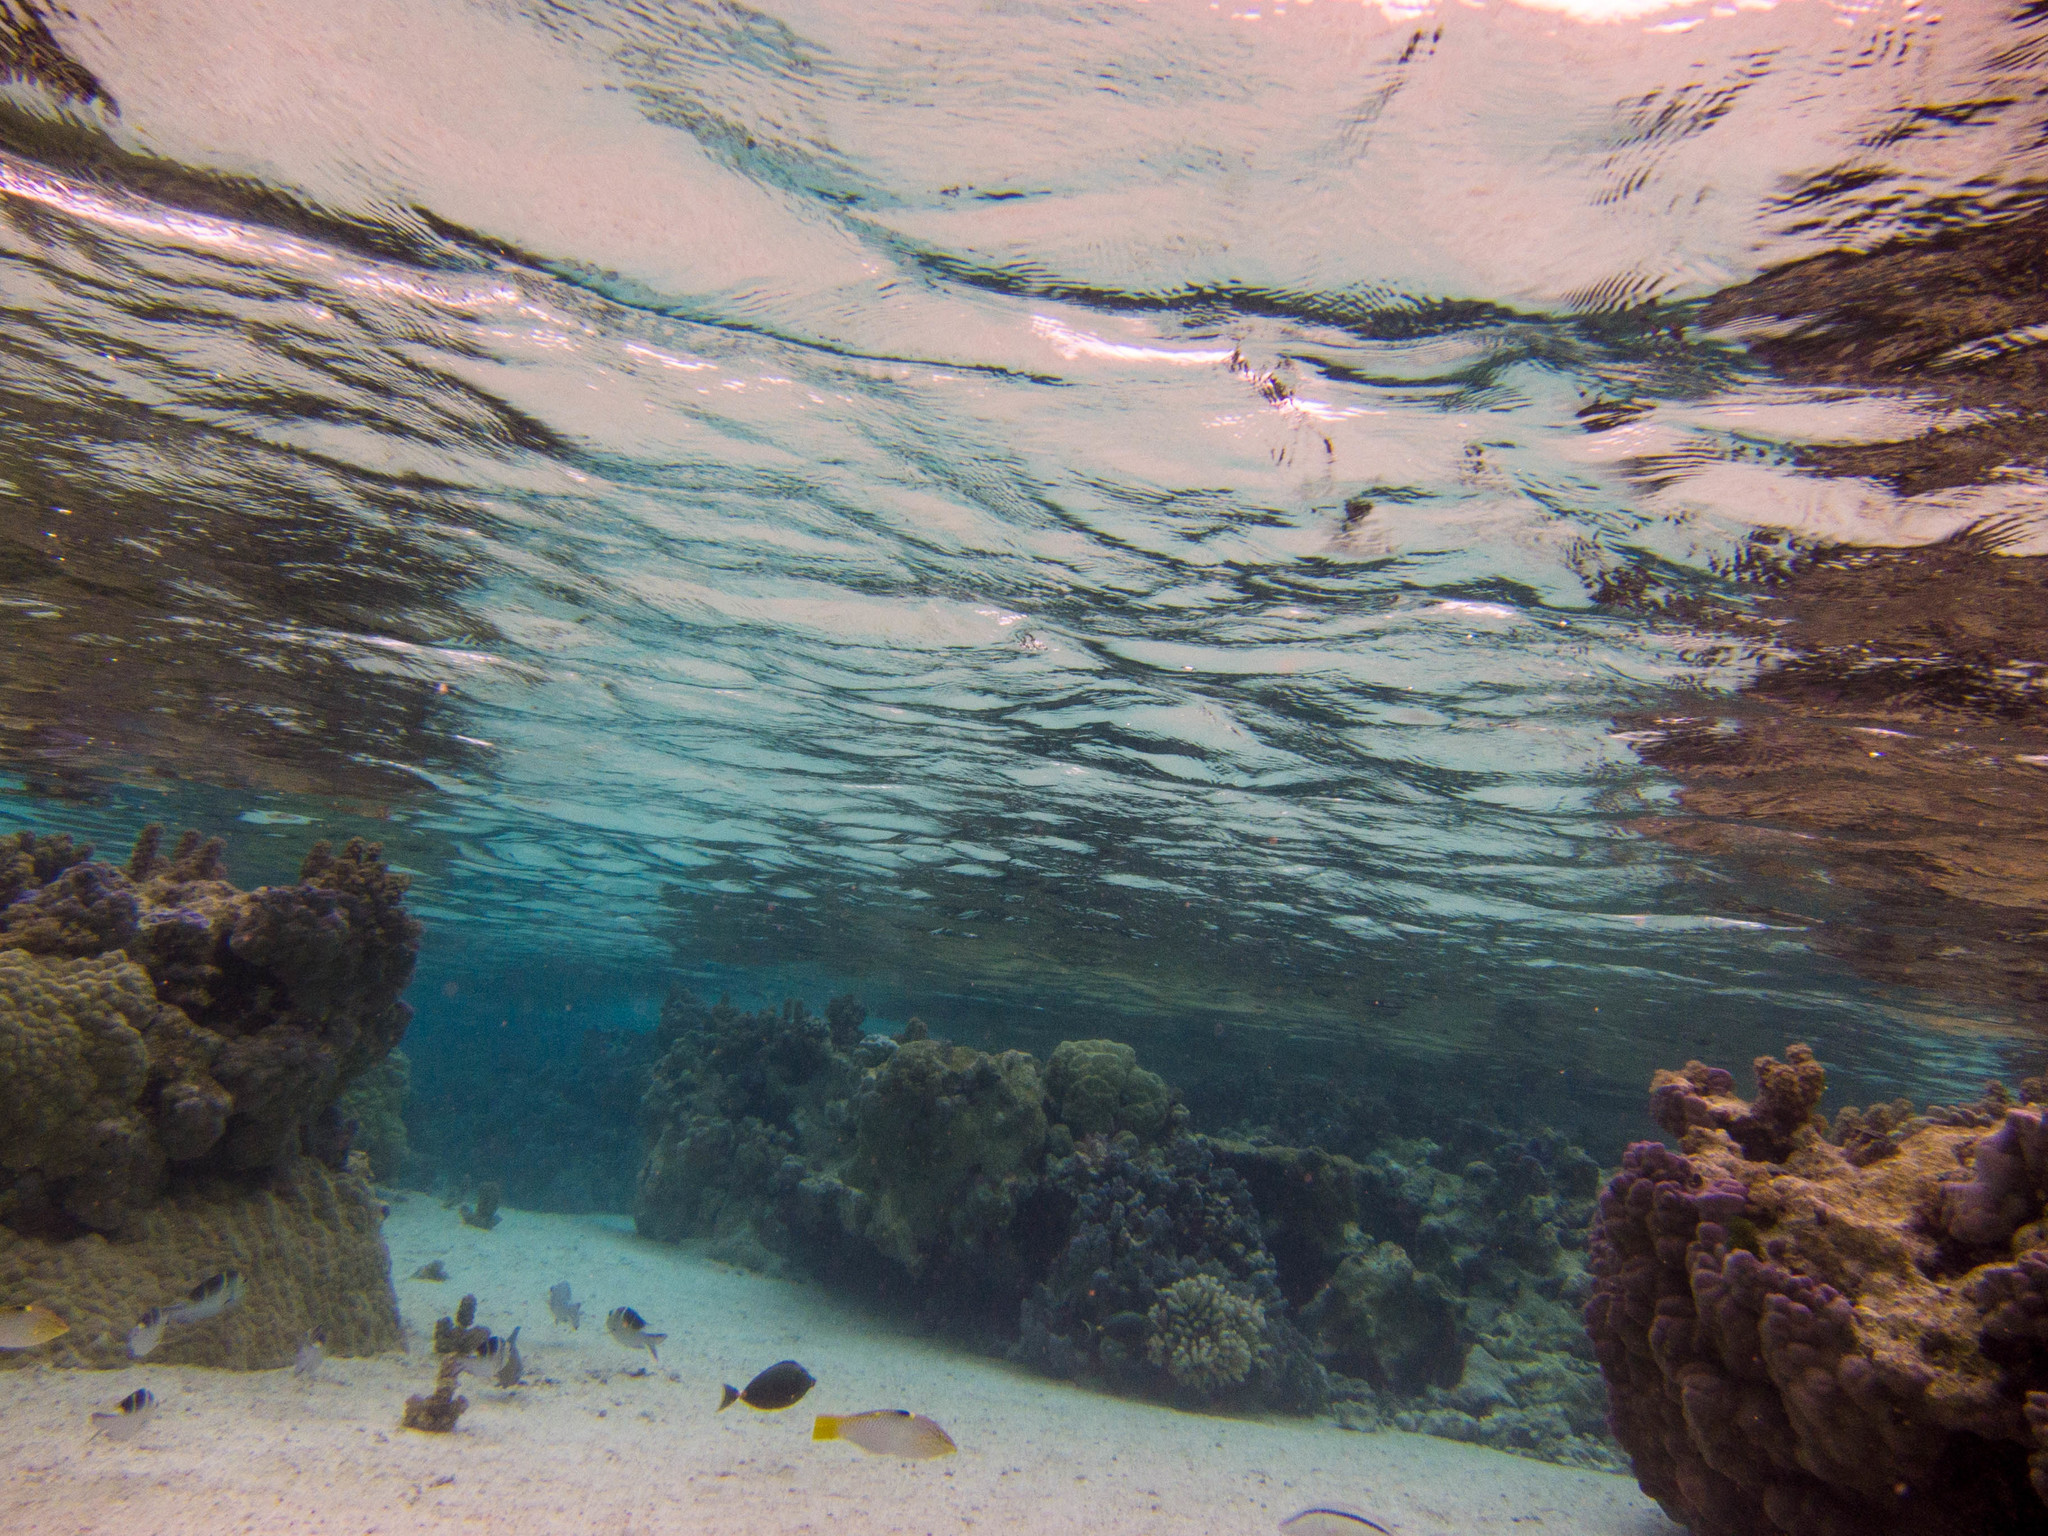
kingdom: Animalia
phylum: Chordata
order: Perciformes
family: Labridae
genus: Halichoeres
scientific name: Halichoeres hortulanus
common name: Checkerboard wrasse
